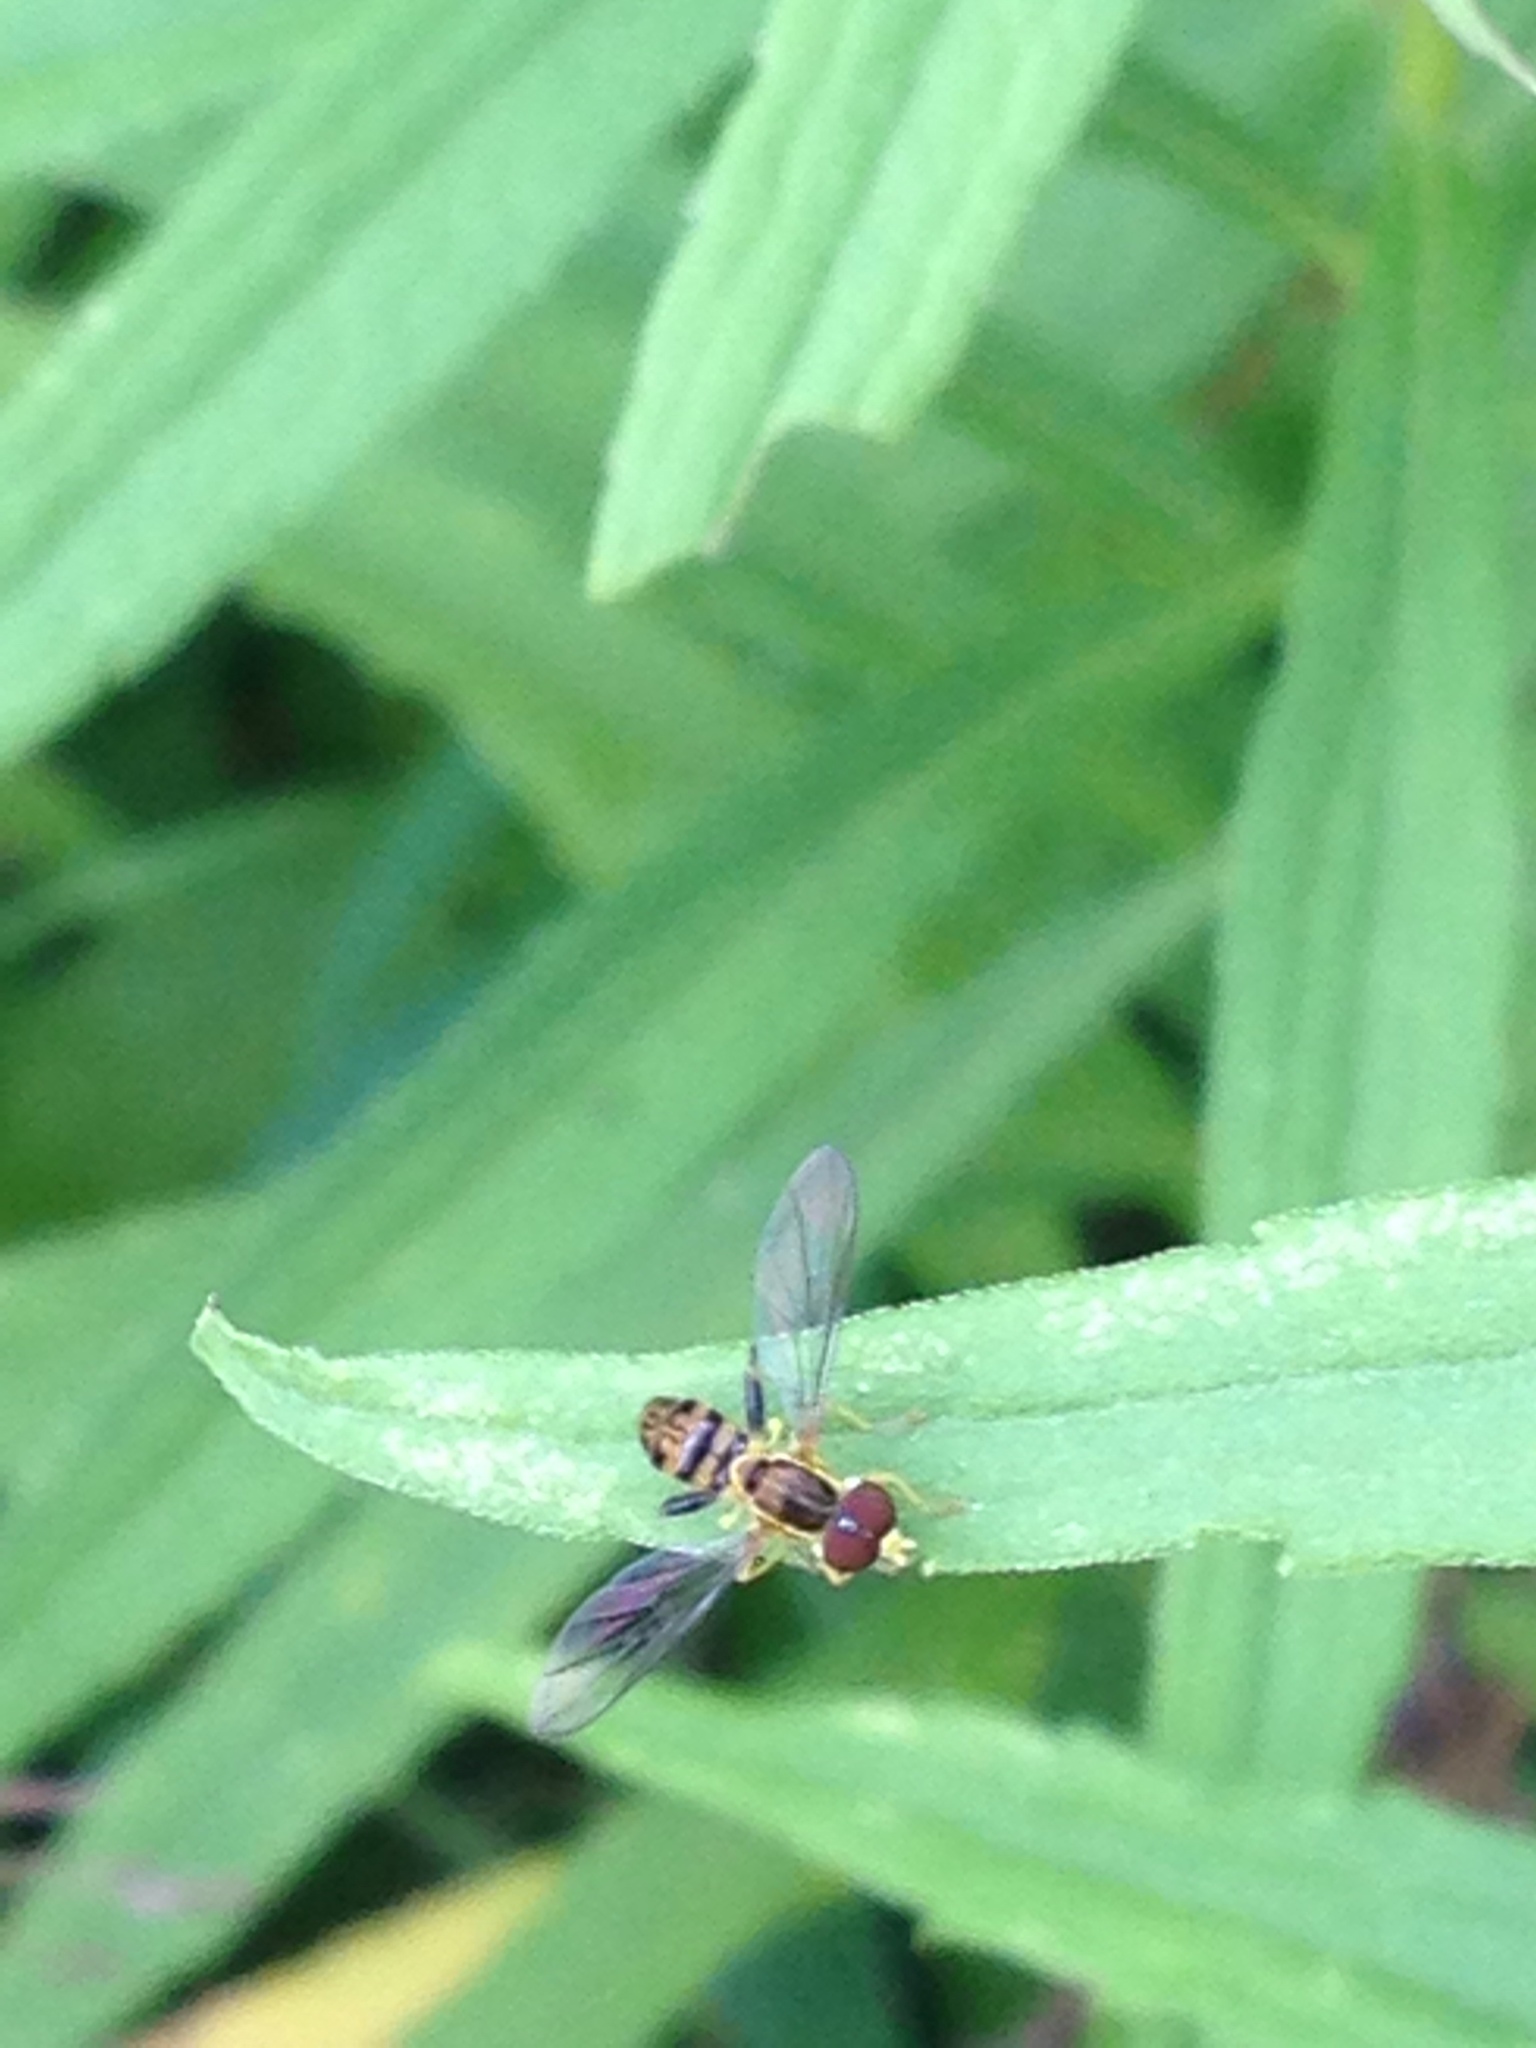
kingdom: Animalia
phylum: Arthropoda
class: Insecta
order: Diptera
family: Syrphidae
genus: Toxomerus
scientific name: Toxomerus geminatus
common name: Eastern calligrapher
